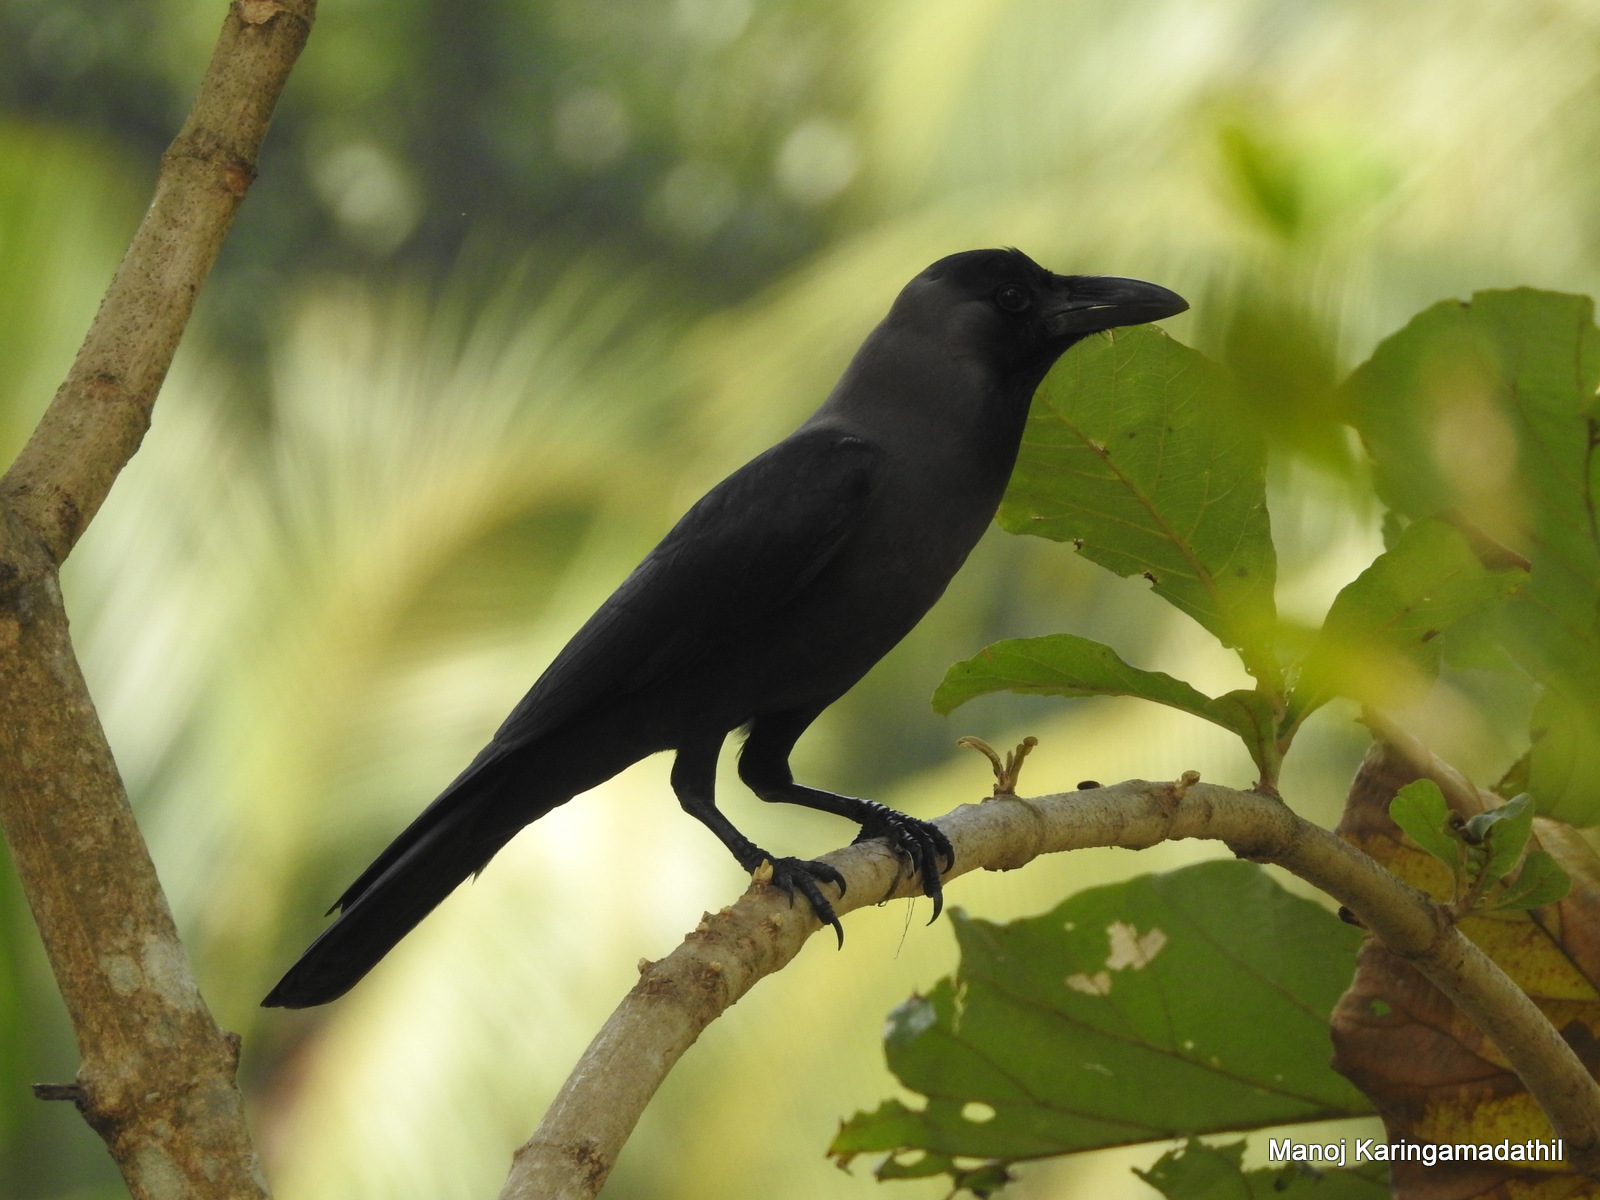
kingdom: Animalia
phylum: Chordata
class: Aves
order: Passeriformes
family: Corvidae
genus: Corvus
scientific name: Corvus splendens
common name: House crow
